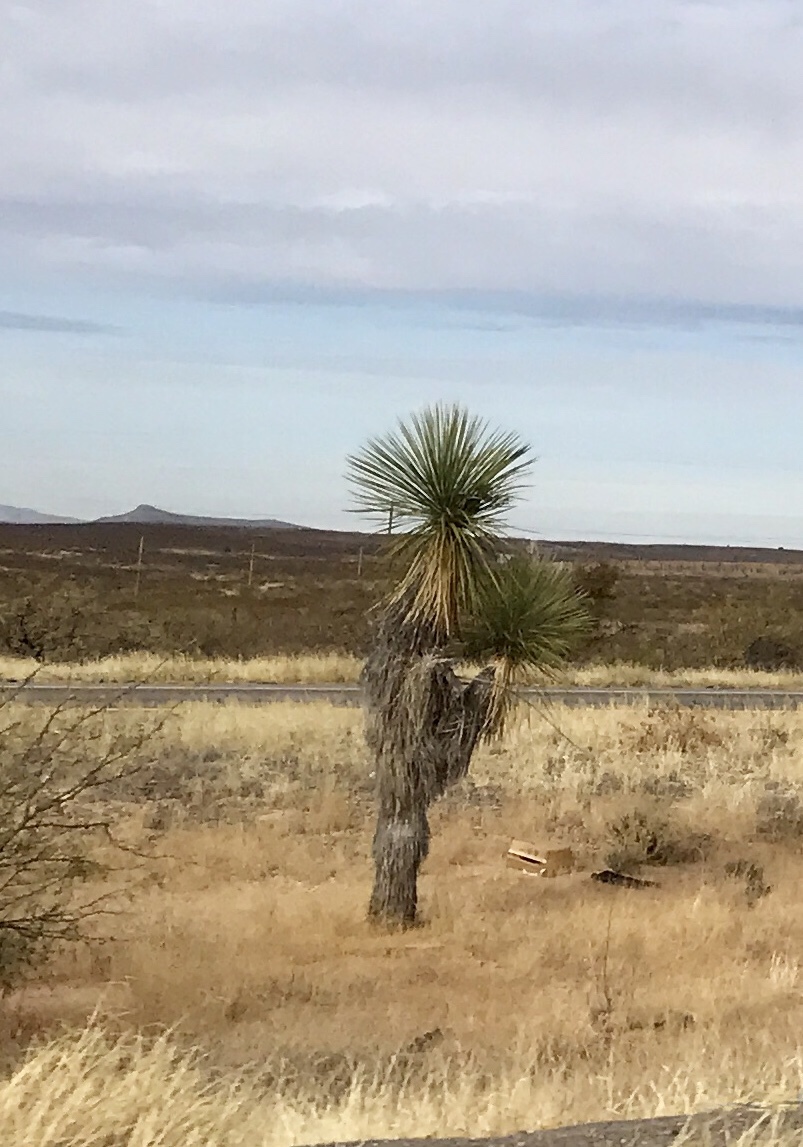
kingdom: Plantae
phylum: Tracheophyta
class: Liliopsida
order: Asparagales
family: Asparagaceae
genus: Yucca
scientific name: Yucca elata
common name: Palmella
